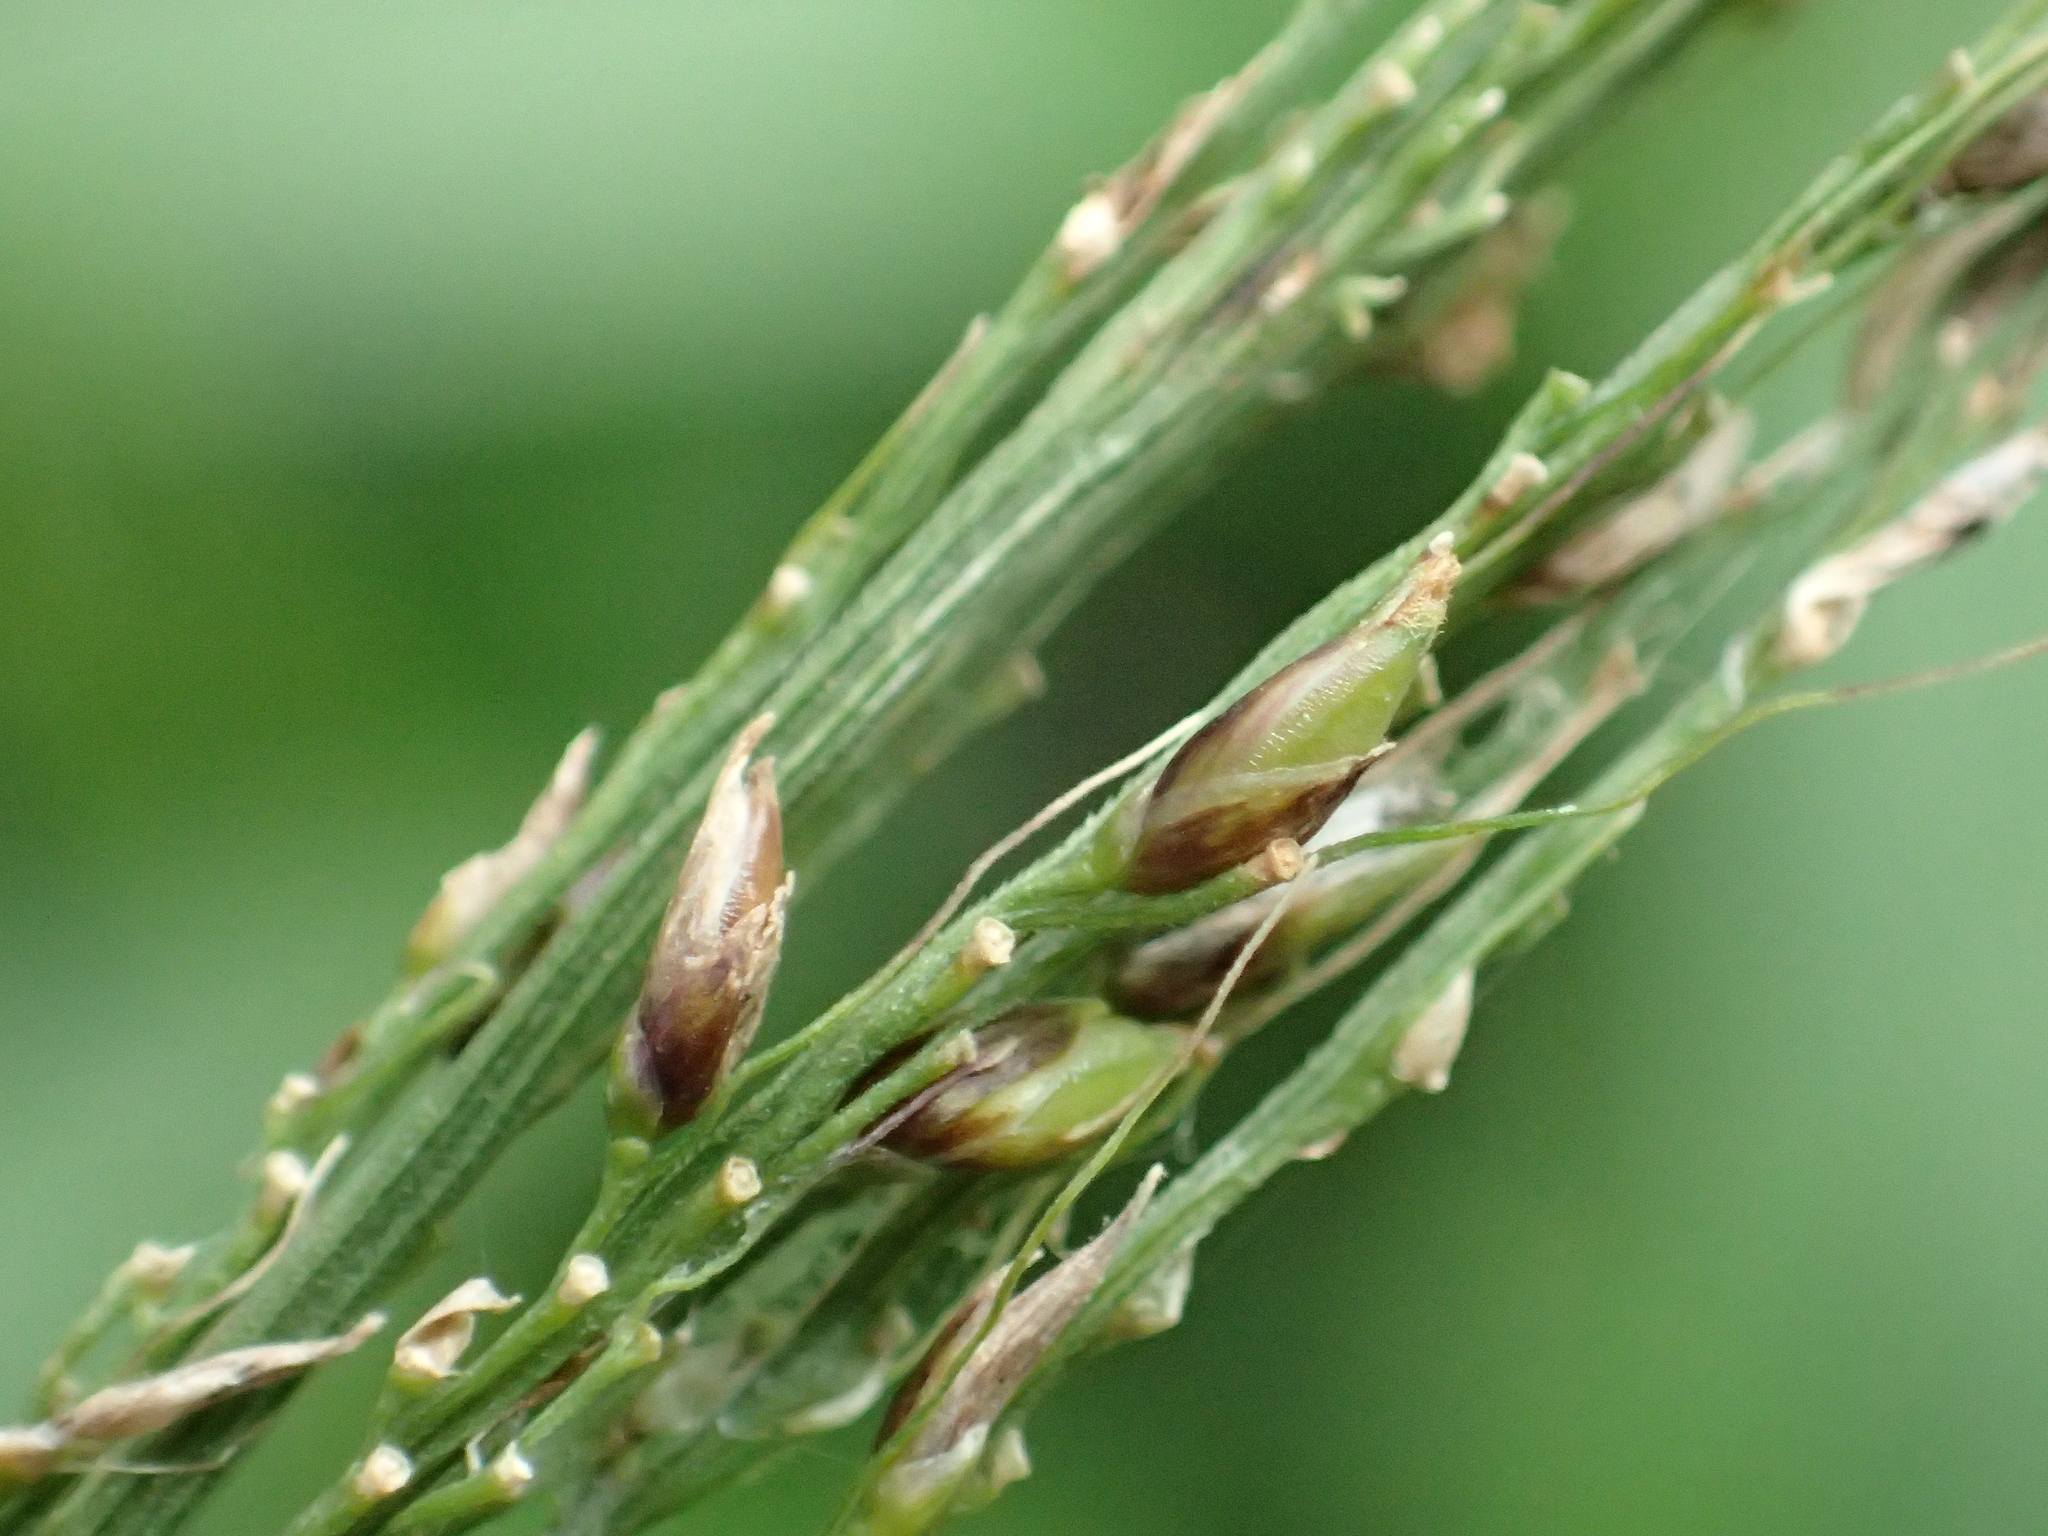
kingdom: Plantae
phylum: Tracheophyta
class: Liliopsida
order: Poales
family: Poaceae
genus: Setaria
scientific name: Setaria palmifolia
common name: Broadleaved bristlegrass
